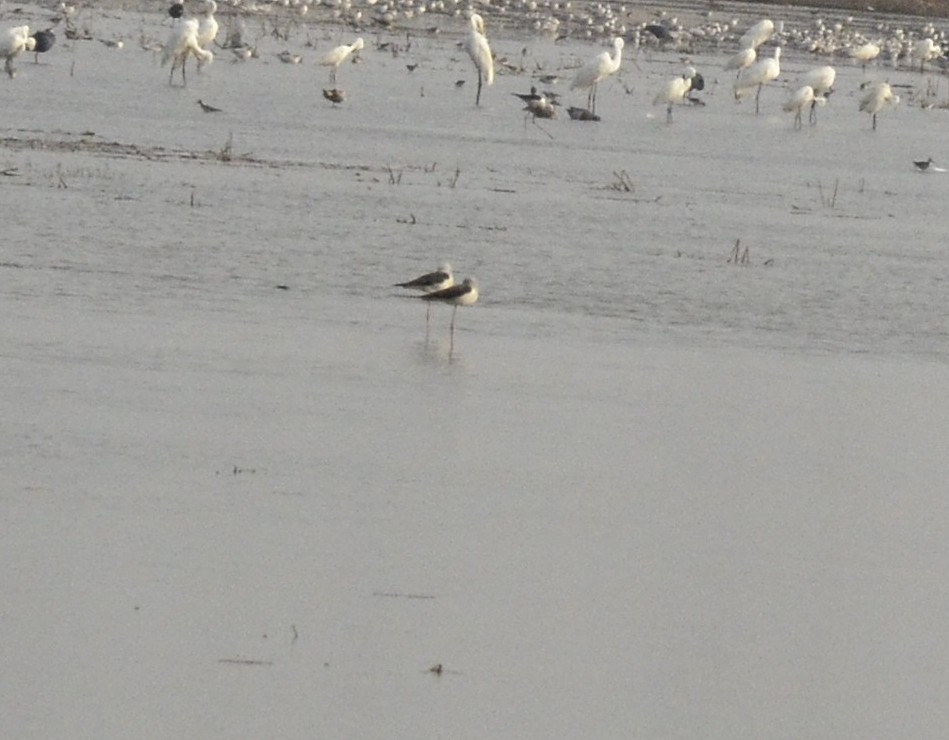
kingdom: Animalia
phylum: Chordata
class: Aves
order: Charadriiformes
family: Recurvirostridae
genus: Himantopus
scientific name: Himantopus himantopus
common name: Black-winged stilt
